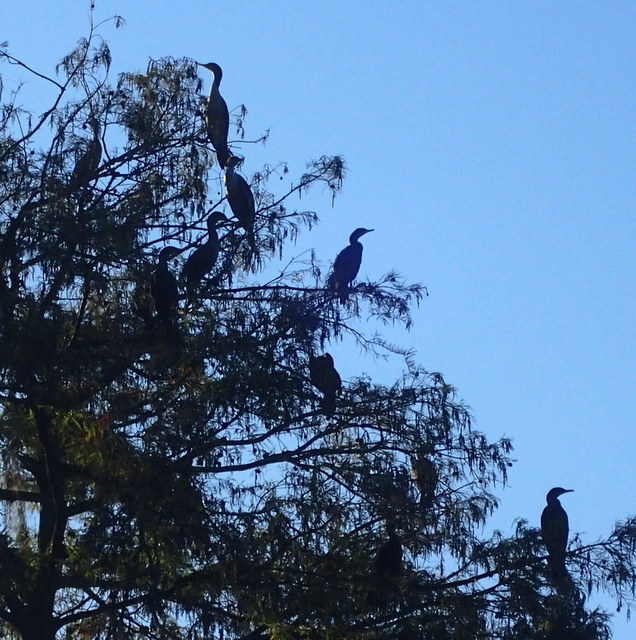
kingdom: Animalia
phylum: Chordata
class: Aves
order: Suliformes
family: Phalacrocoracidae
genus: Phalacrocorax
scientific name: Phalacrocorax auritus
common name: Double-crested cormorant
